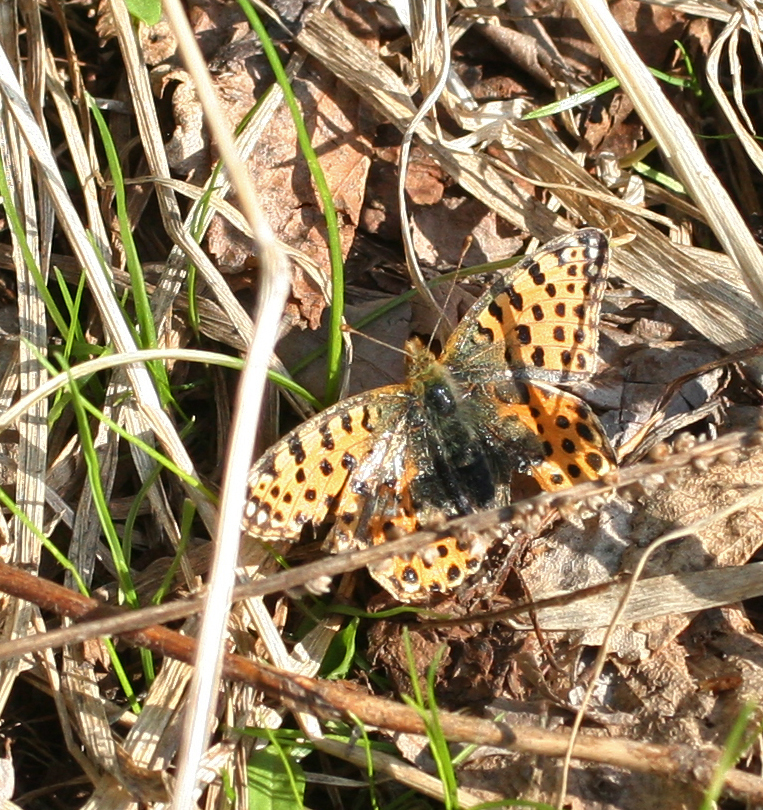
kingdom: Animalia
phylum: Arthropoda
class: Insecta
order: Lepidoptera
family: Nymphalidae
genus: Issoria
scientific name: Issoria lathonia
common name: Queen of spain fritillary
